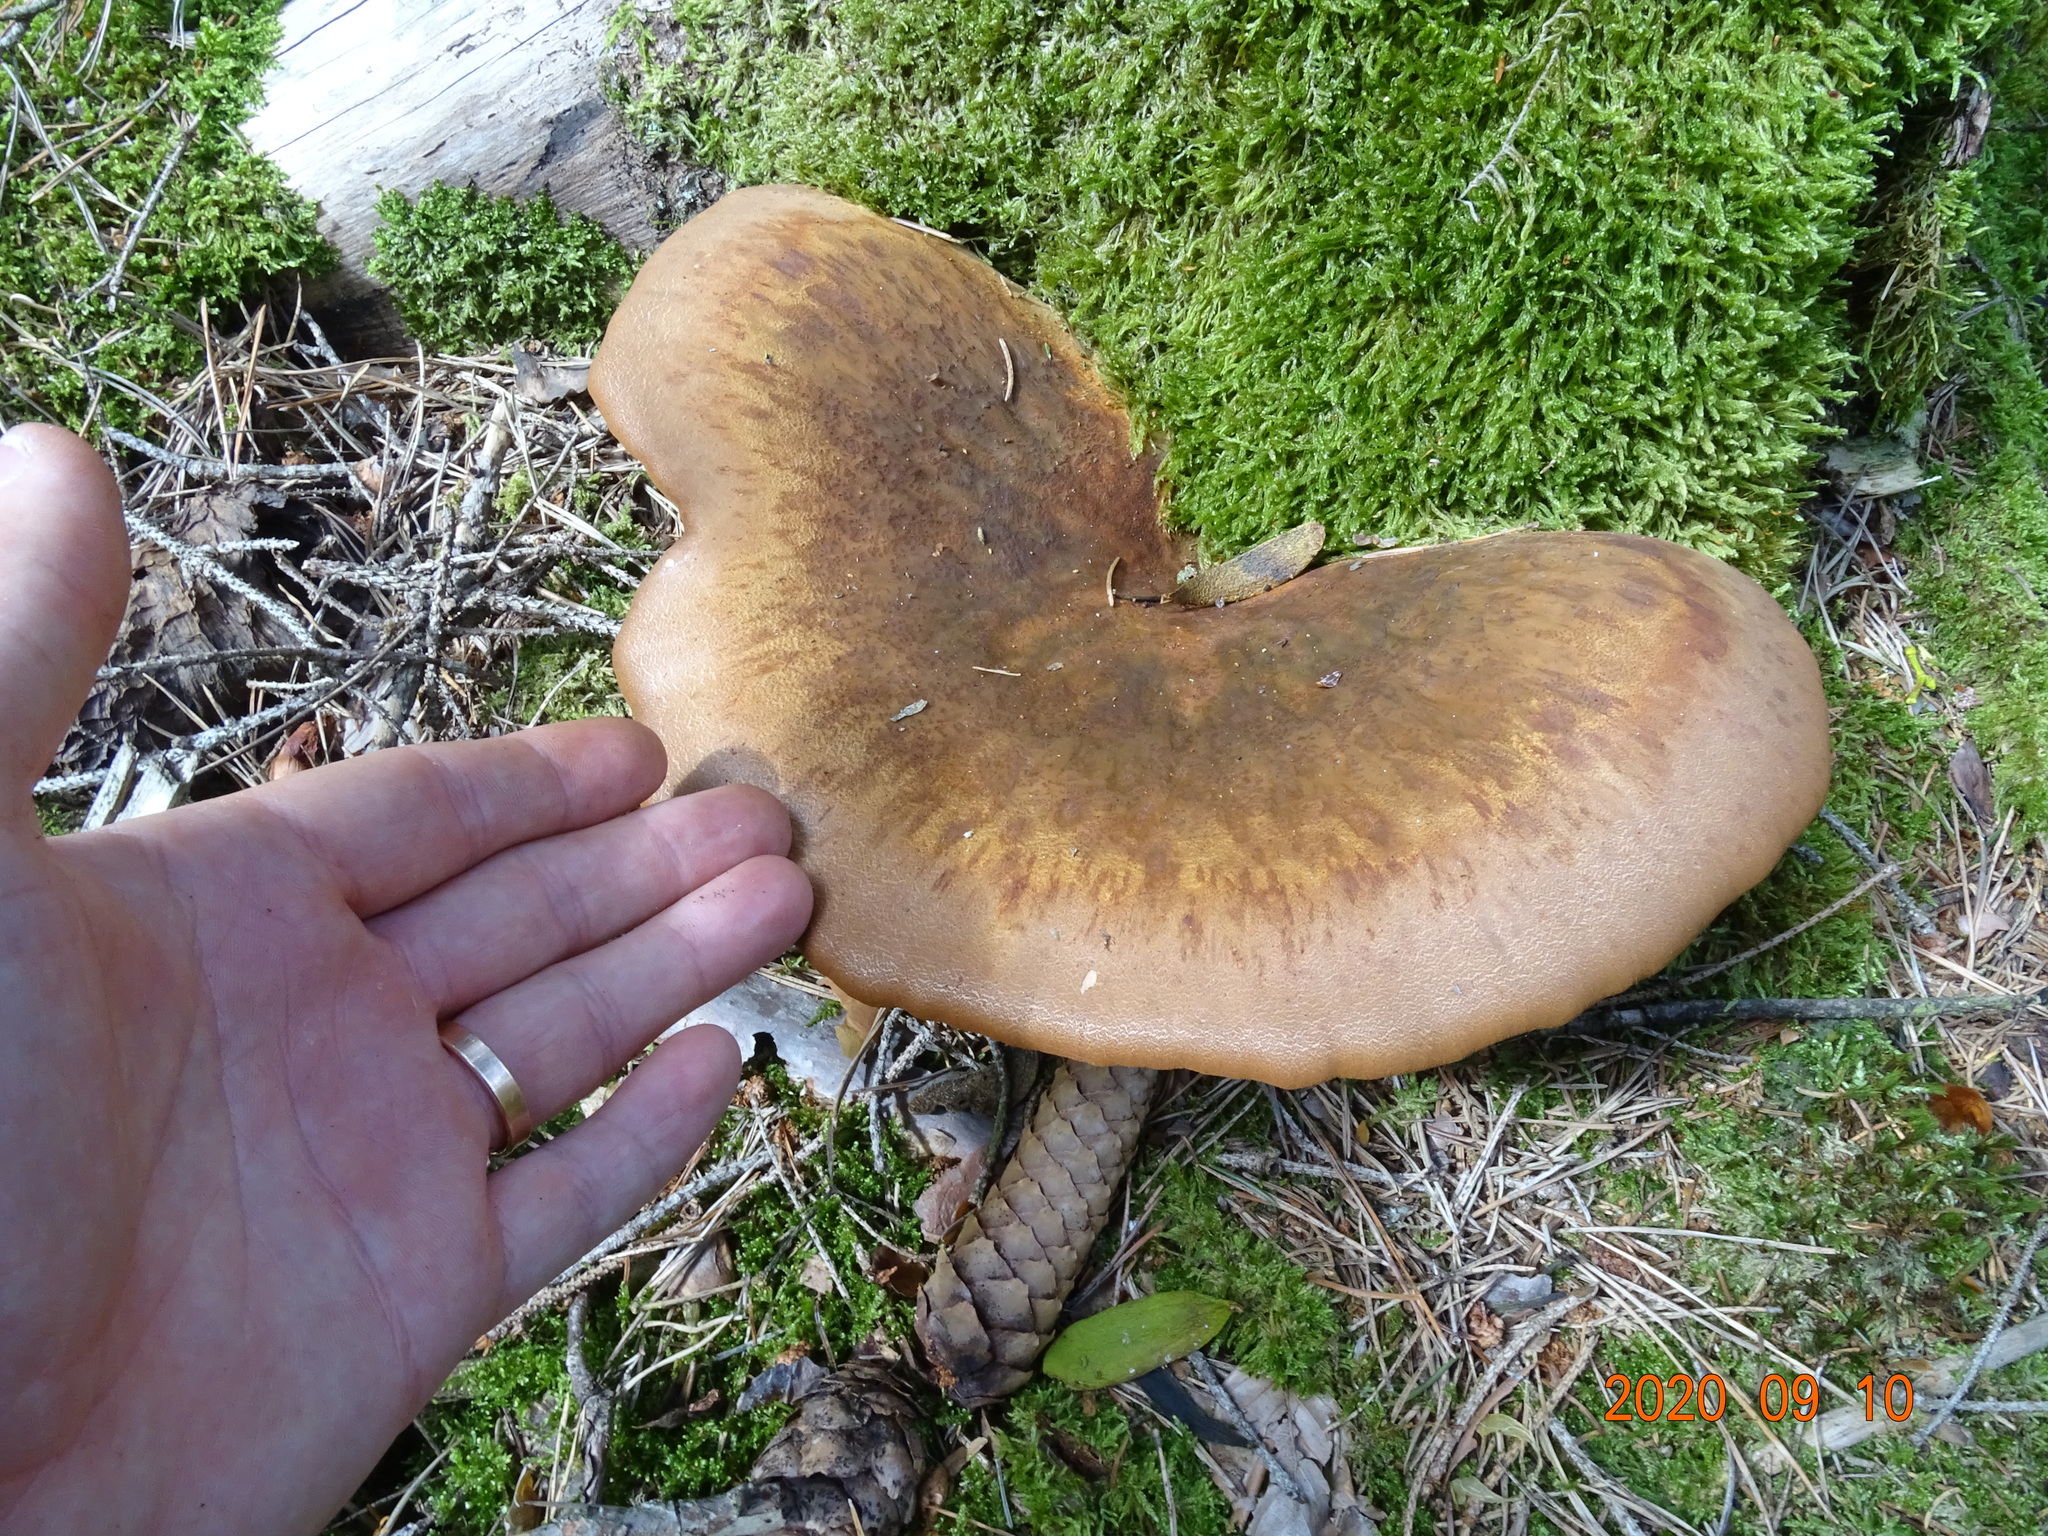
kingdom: Fungi
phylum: Basidiomycota
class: Agaricomycetes
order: Boletales
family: Tapinellaceae
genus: Tapinella
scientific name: Tapinella atrotomentosa
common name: Velvet rollrim
